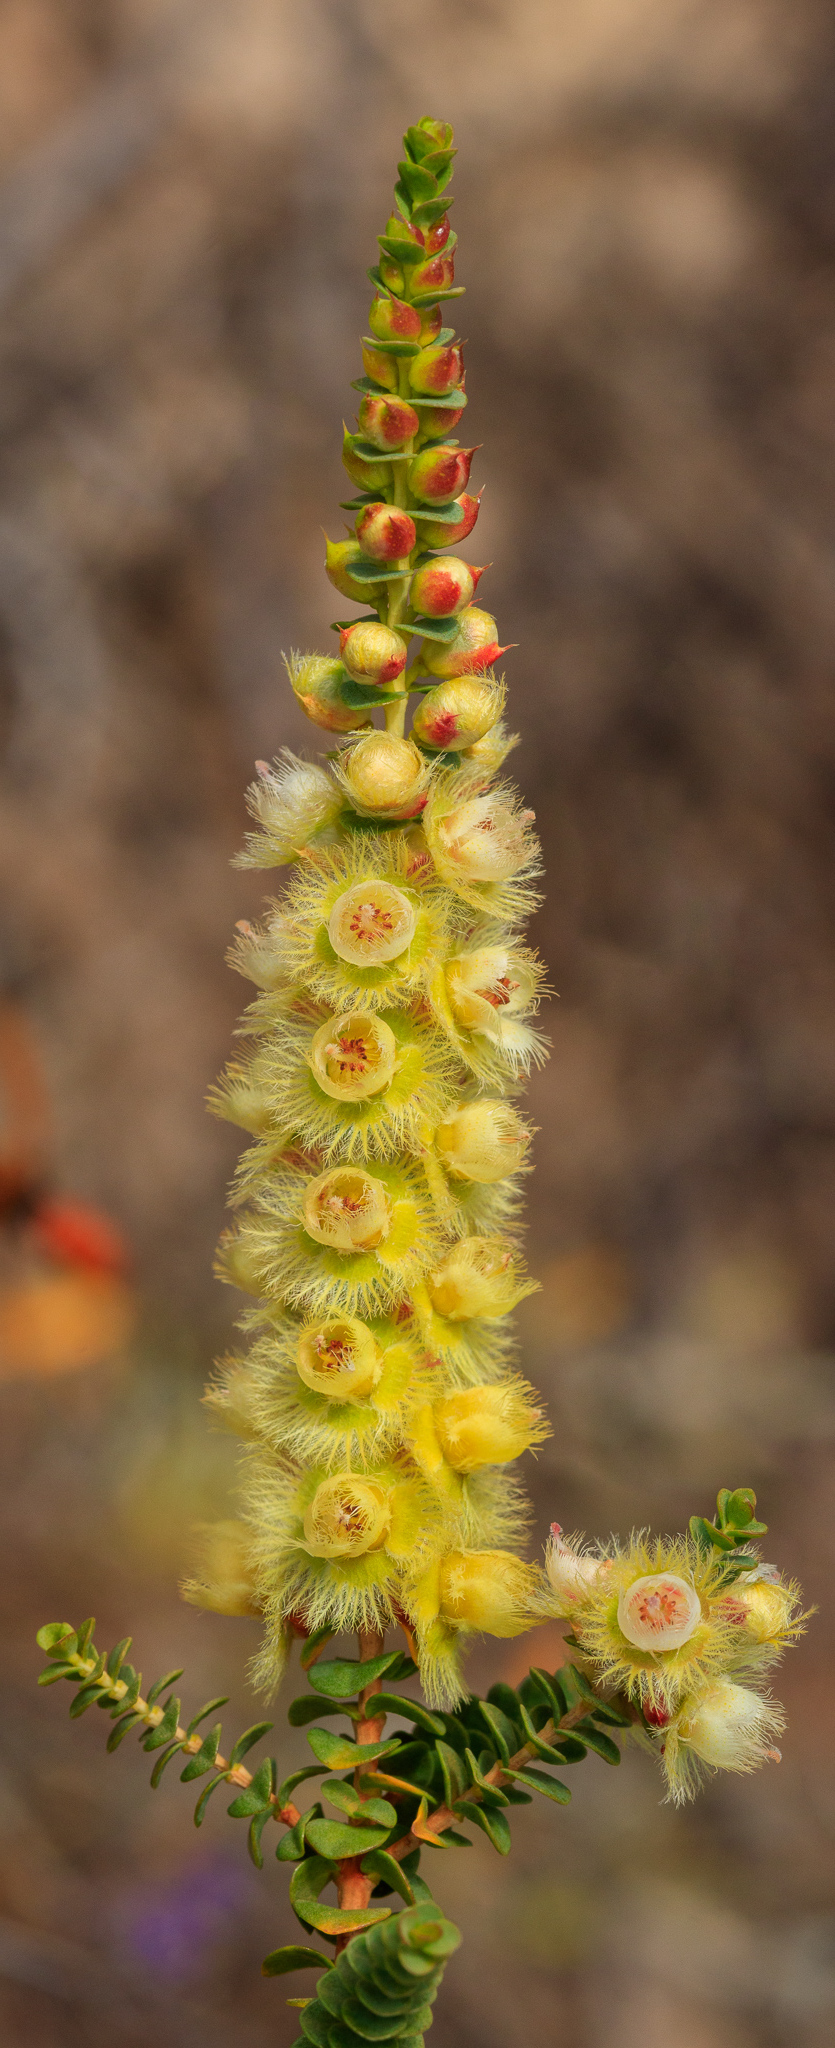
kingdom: Plantae
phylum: Tracheophyta
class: Magnoliopsida
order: Myrtales
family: Myrtaceae
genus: Verticordia
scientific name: Verticordia chrysostachys
